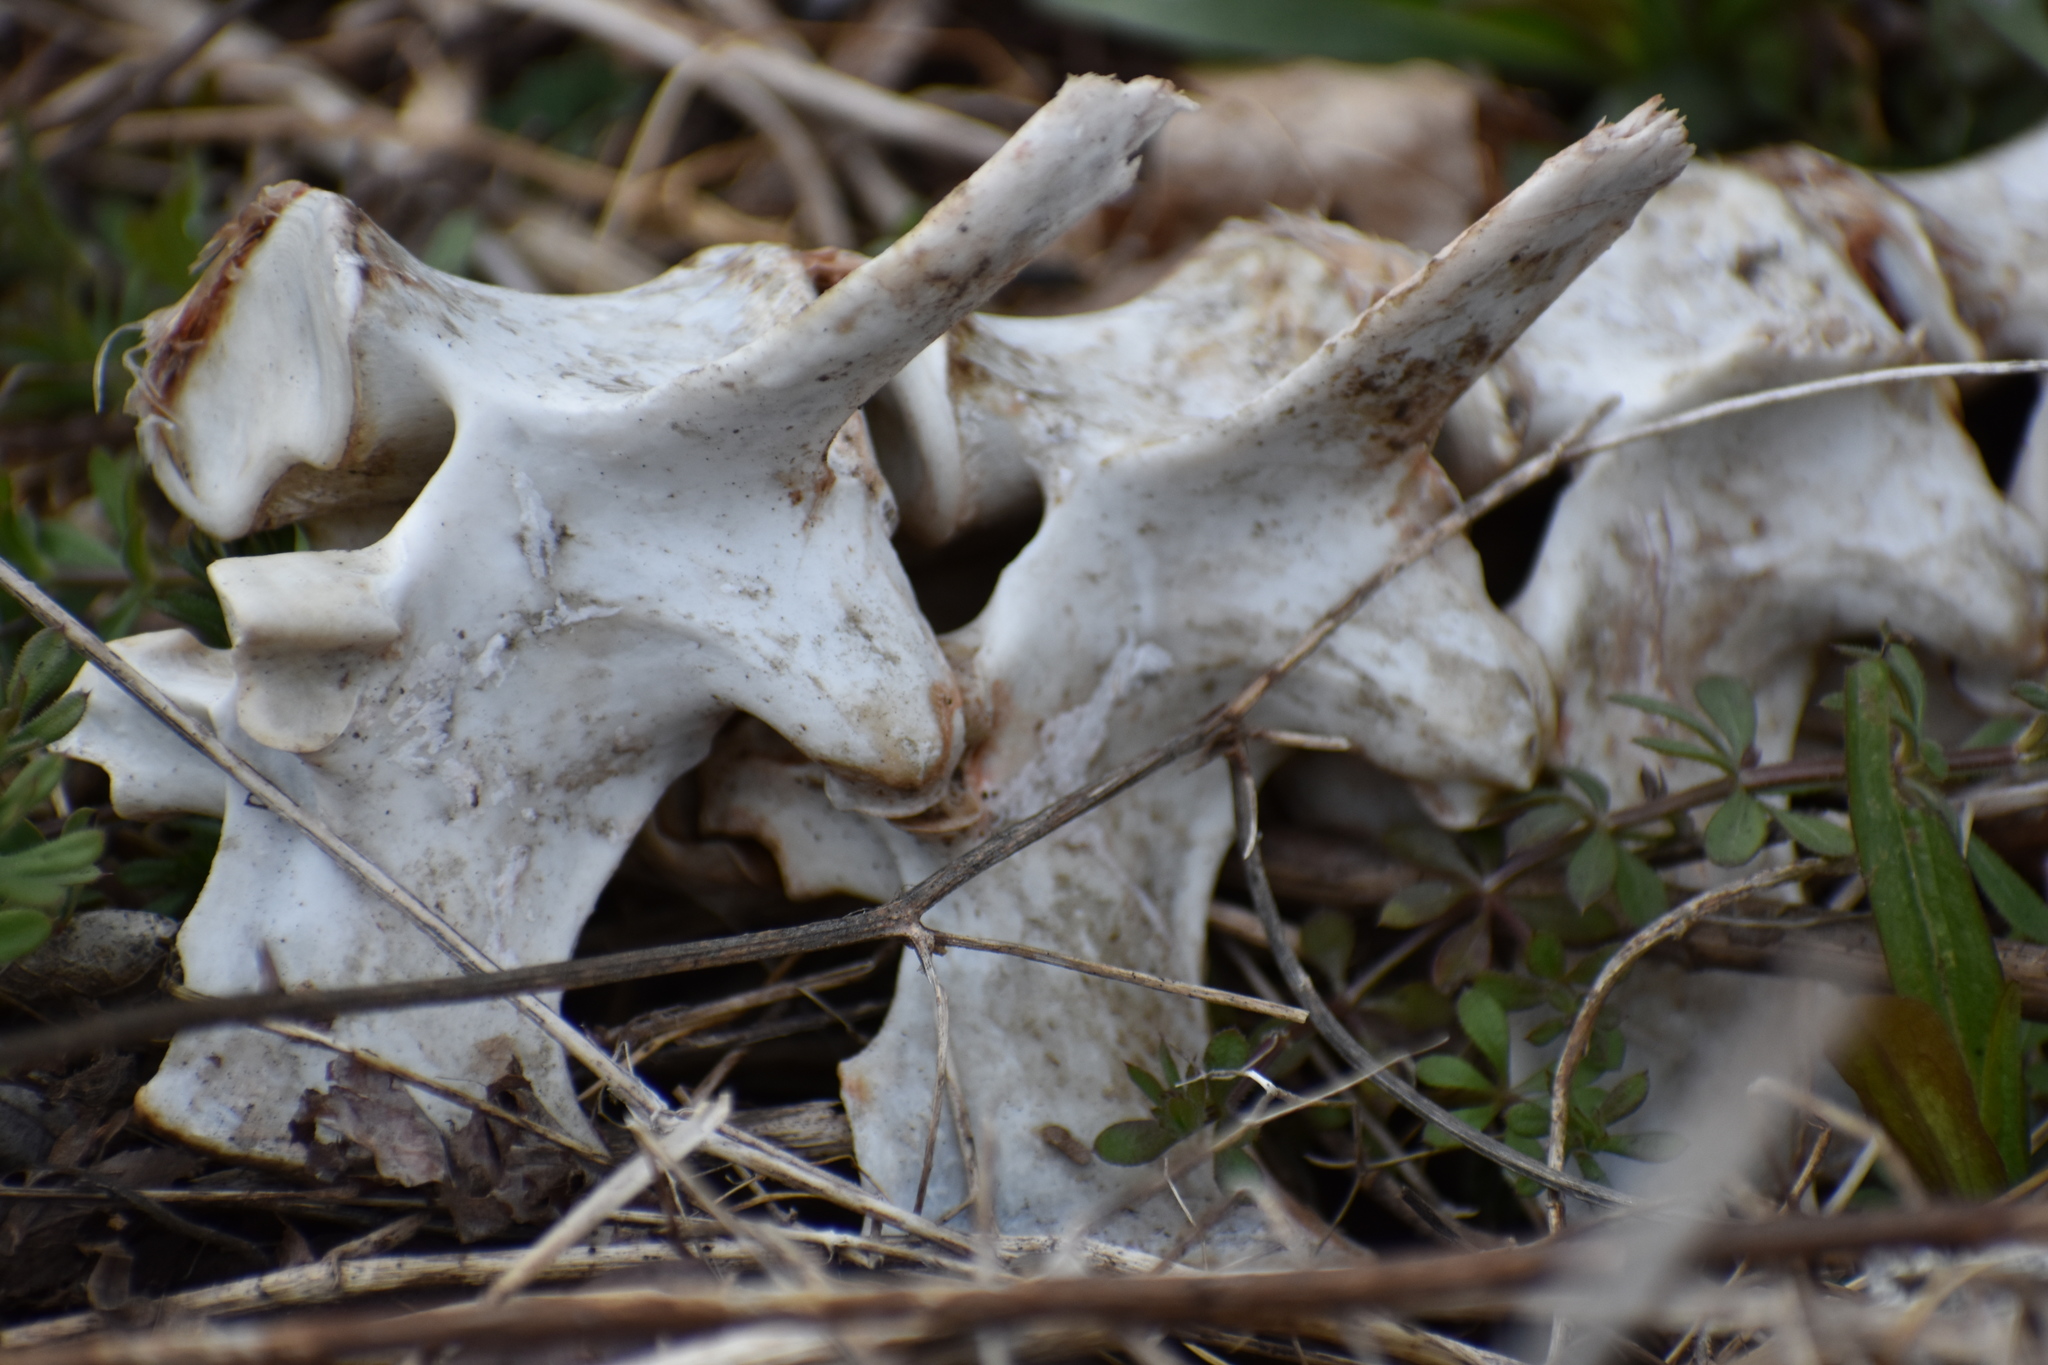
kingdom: Animalia
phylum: Chordata
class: Mammalia
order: Artiodactyla
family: Cervidae
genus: Odocoileus
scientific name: Odocoileus virginianus
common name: White-tailed deer
